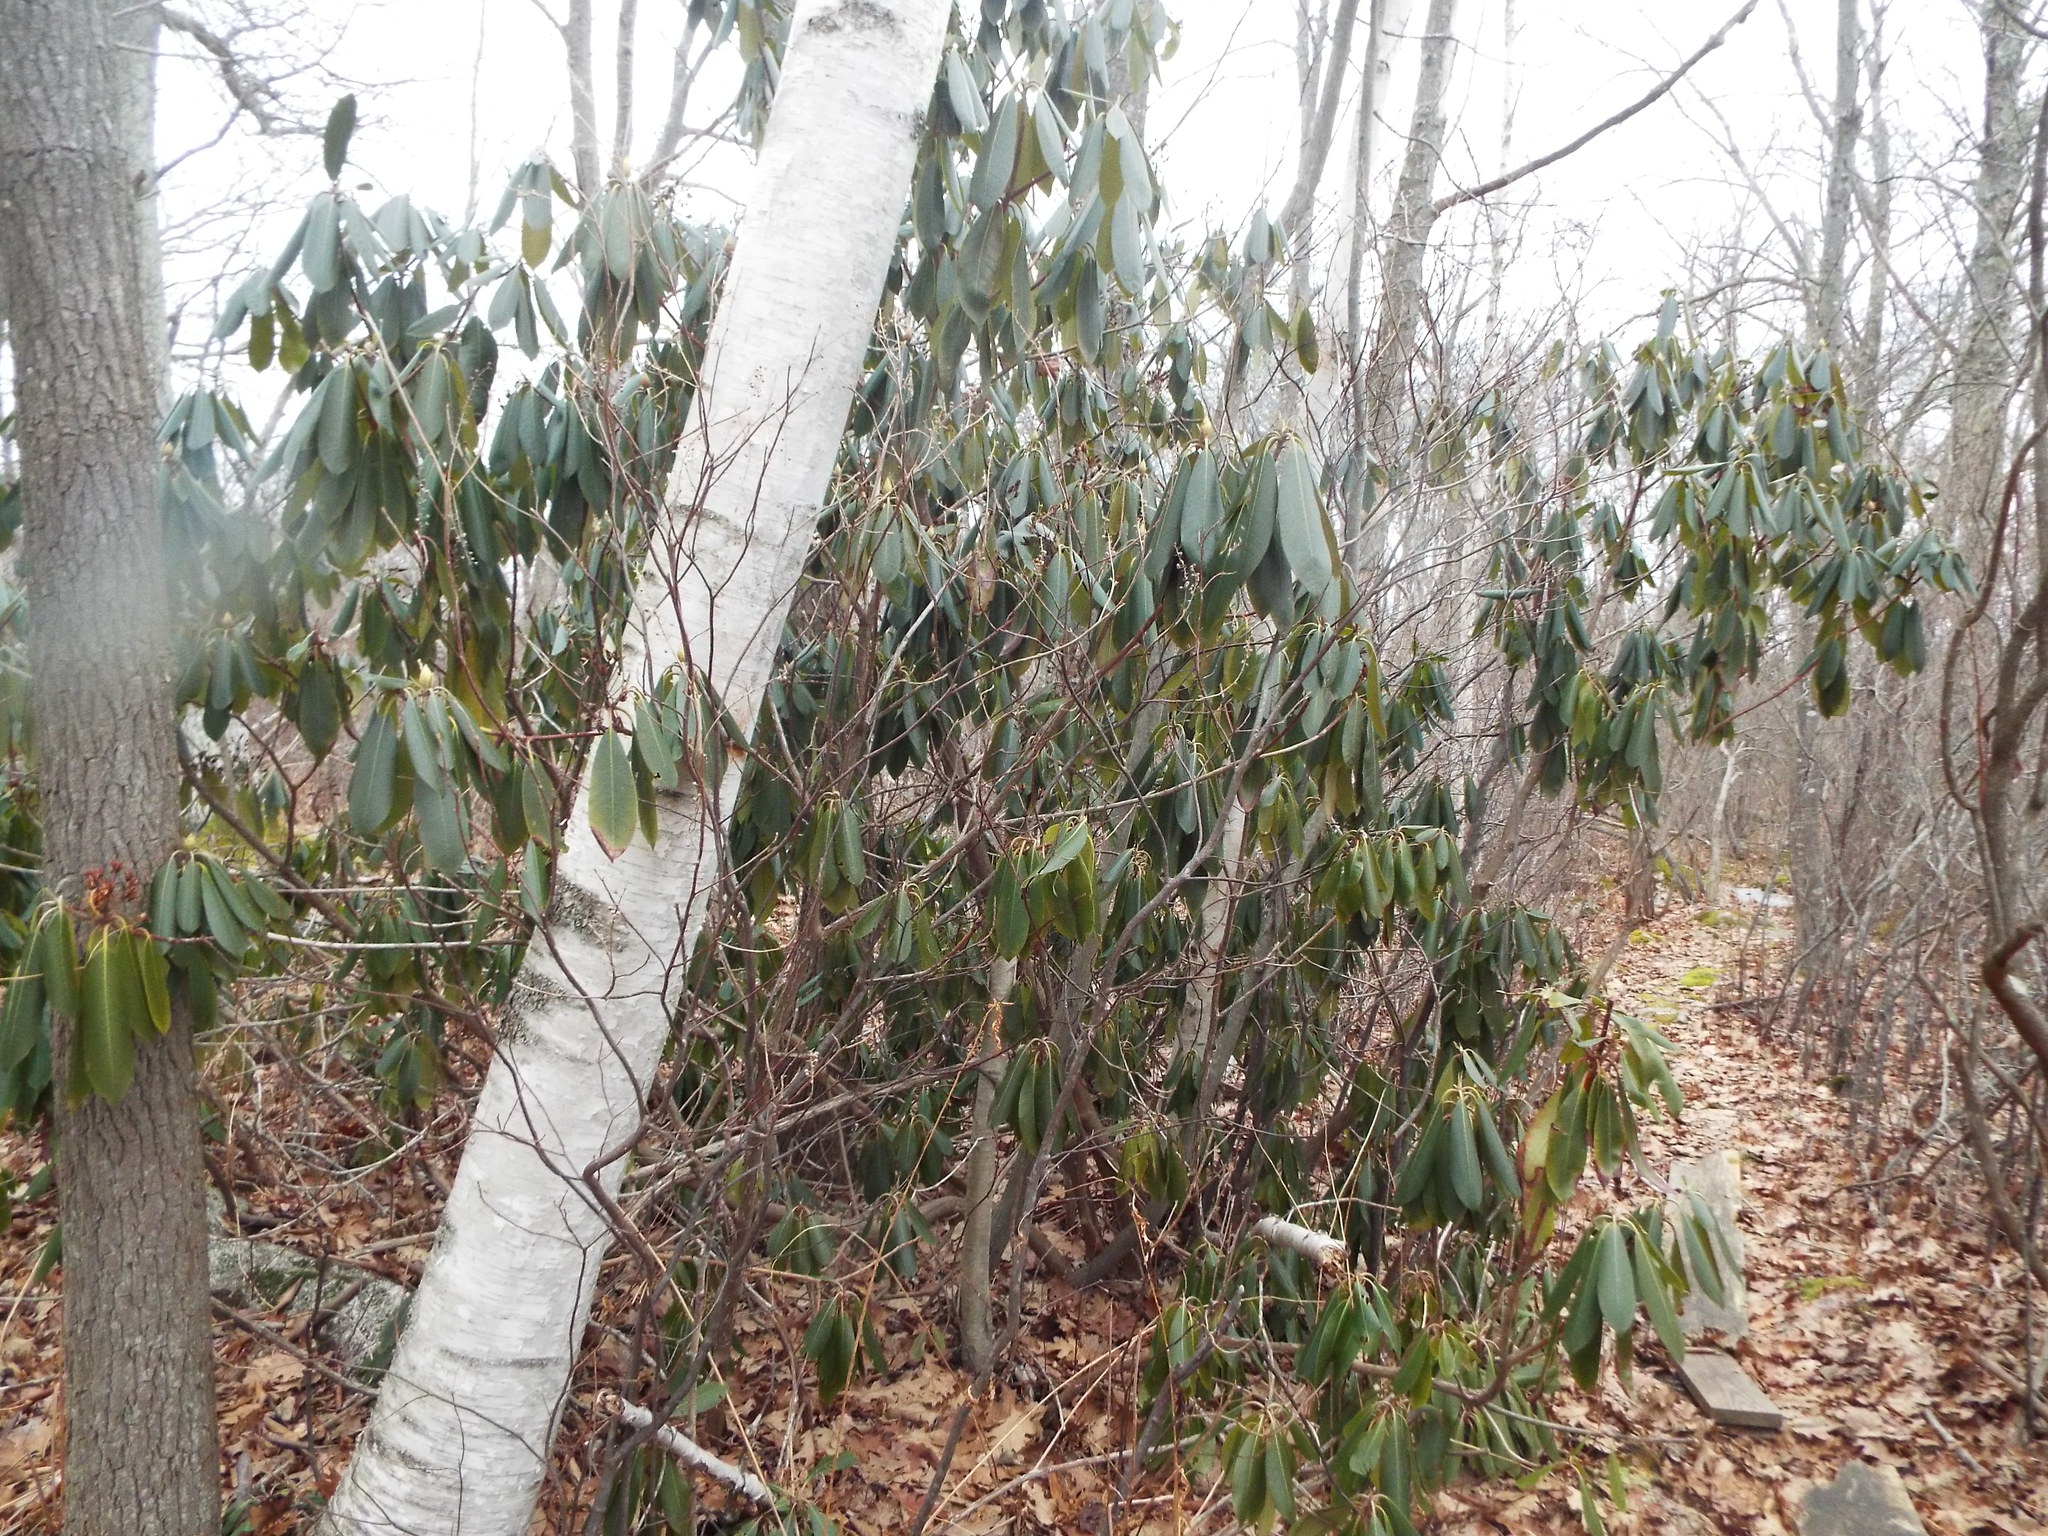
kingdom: Plantae
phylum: Tracheophyta
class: Magnoliopsida
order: Ericales
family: Ericaceae
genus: Rhododendron
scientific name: Rhododendron maximum
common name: Great rhododendron
